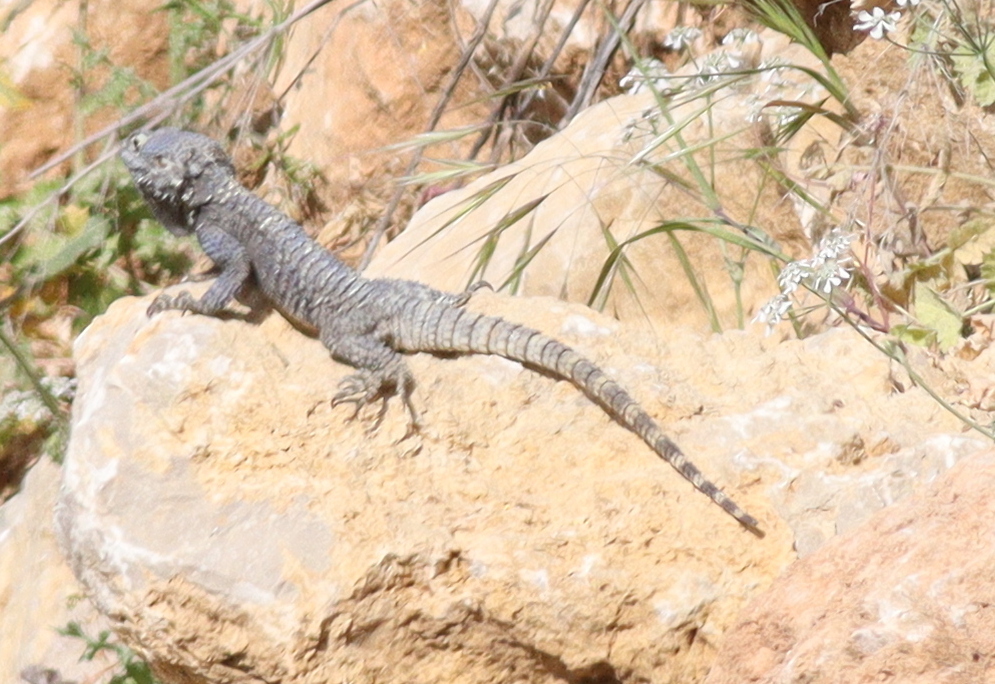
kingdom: Animalia
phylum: Chordata
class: Squamata
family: Agamidae
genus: Stellagama
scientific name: Stellagama stellio
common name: Starred agama
